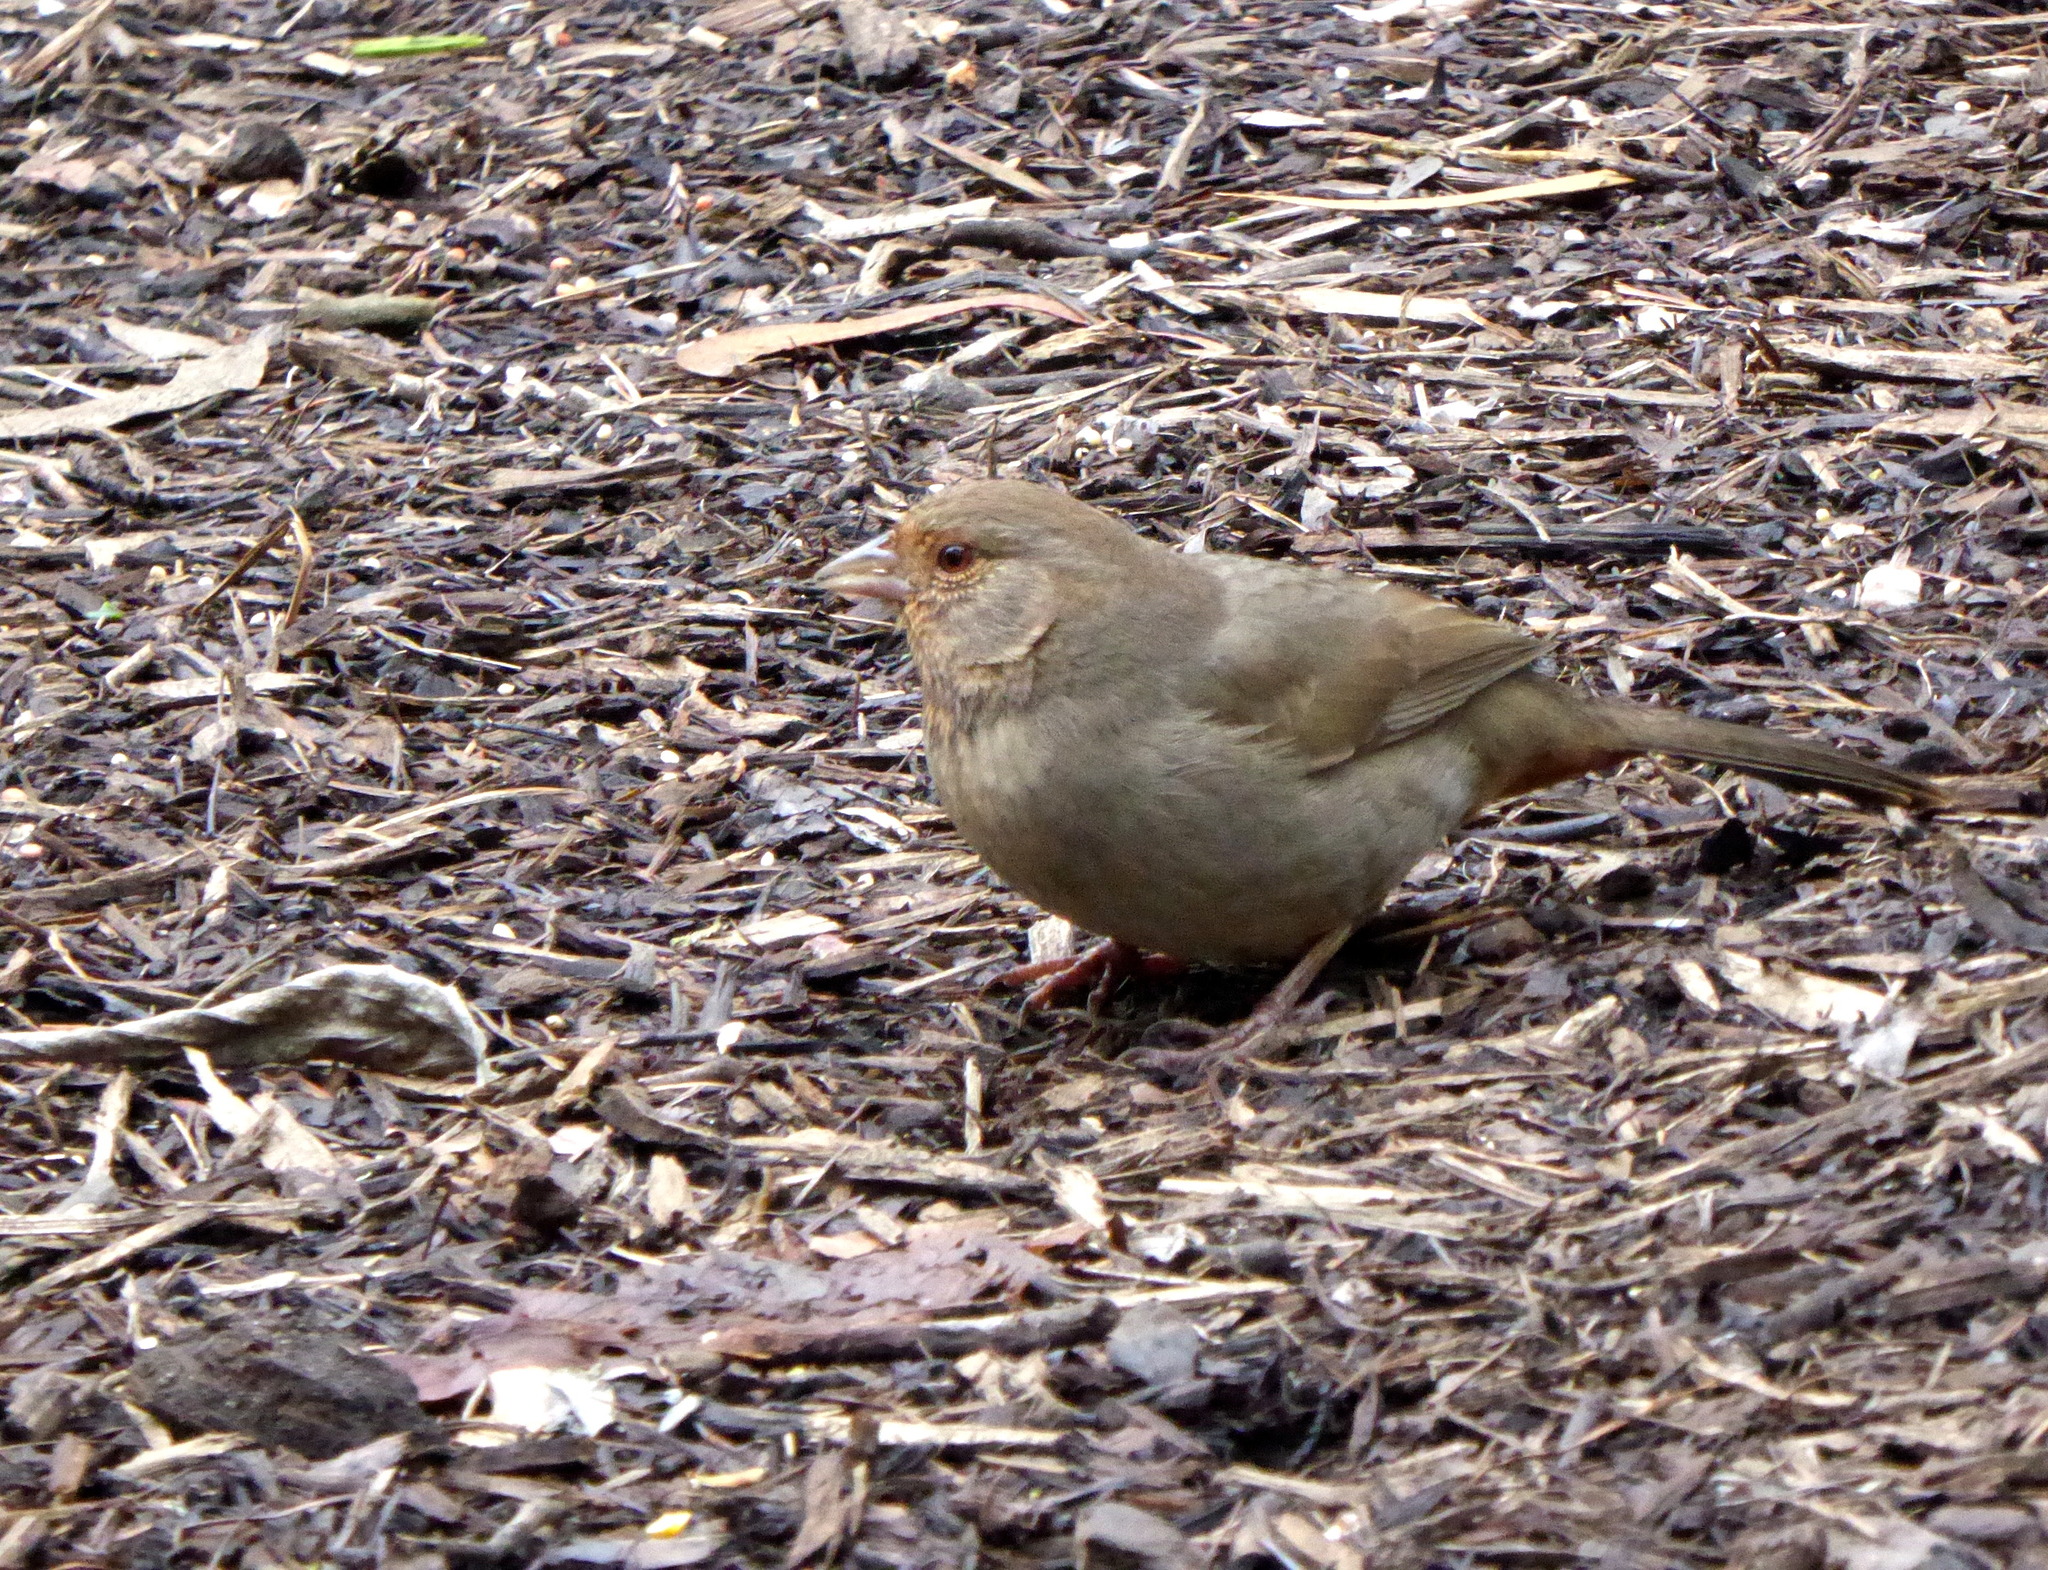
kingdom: Animalia
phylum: Chordata
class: Aves
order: Passeriformes
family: Passerellidae
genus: Melozone
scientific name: Melozone crissalis
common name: California towhee
